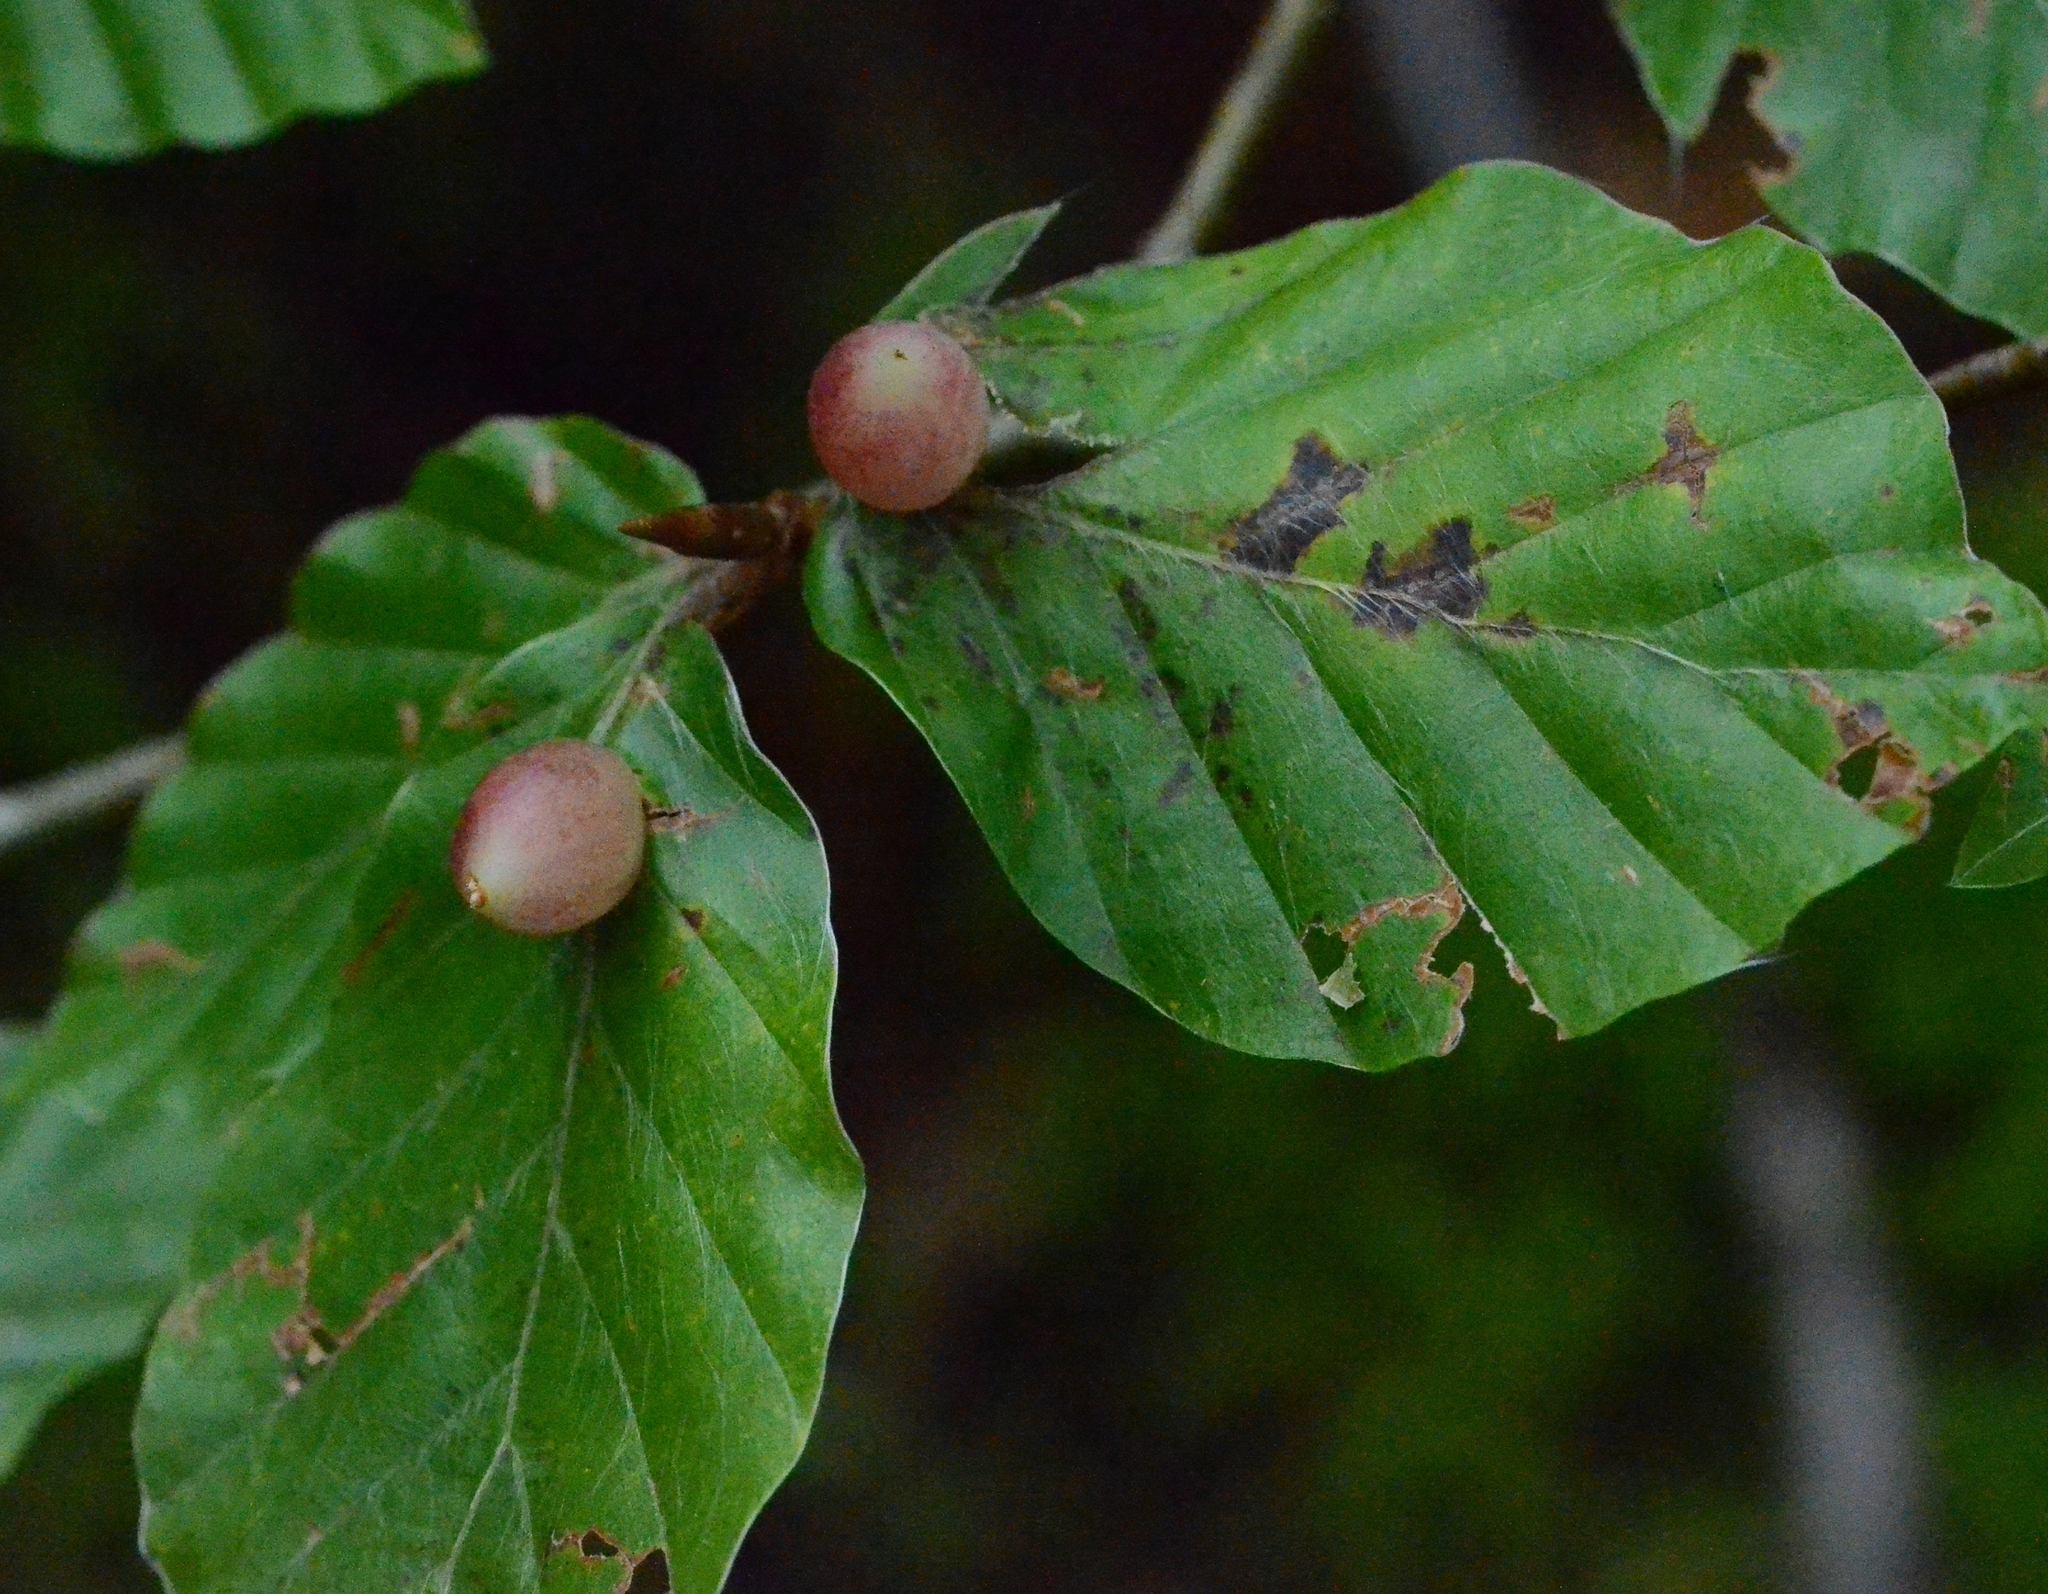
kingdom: Animalia
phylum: Arthropoda
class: Insecta
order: Diptera
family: Cecidomyiidae
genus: Mikiola
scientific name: Mikiola fagi
